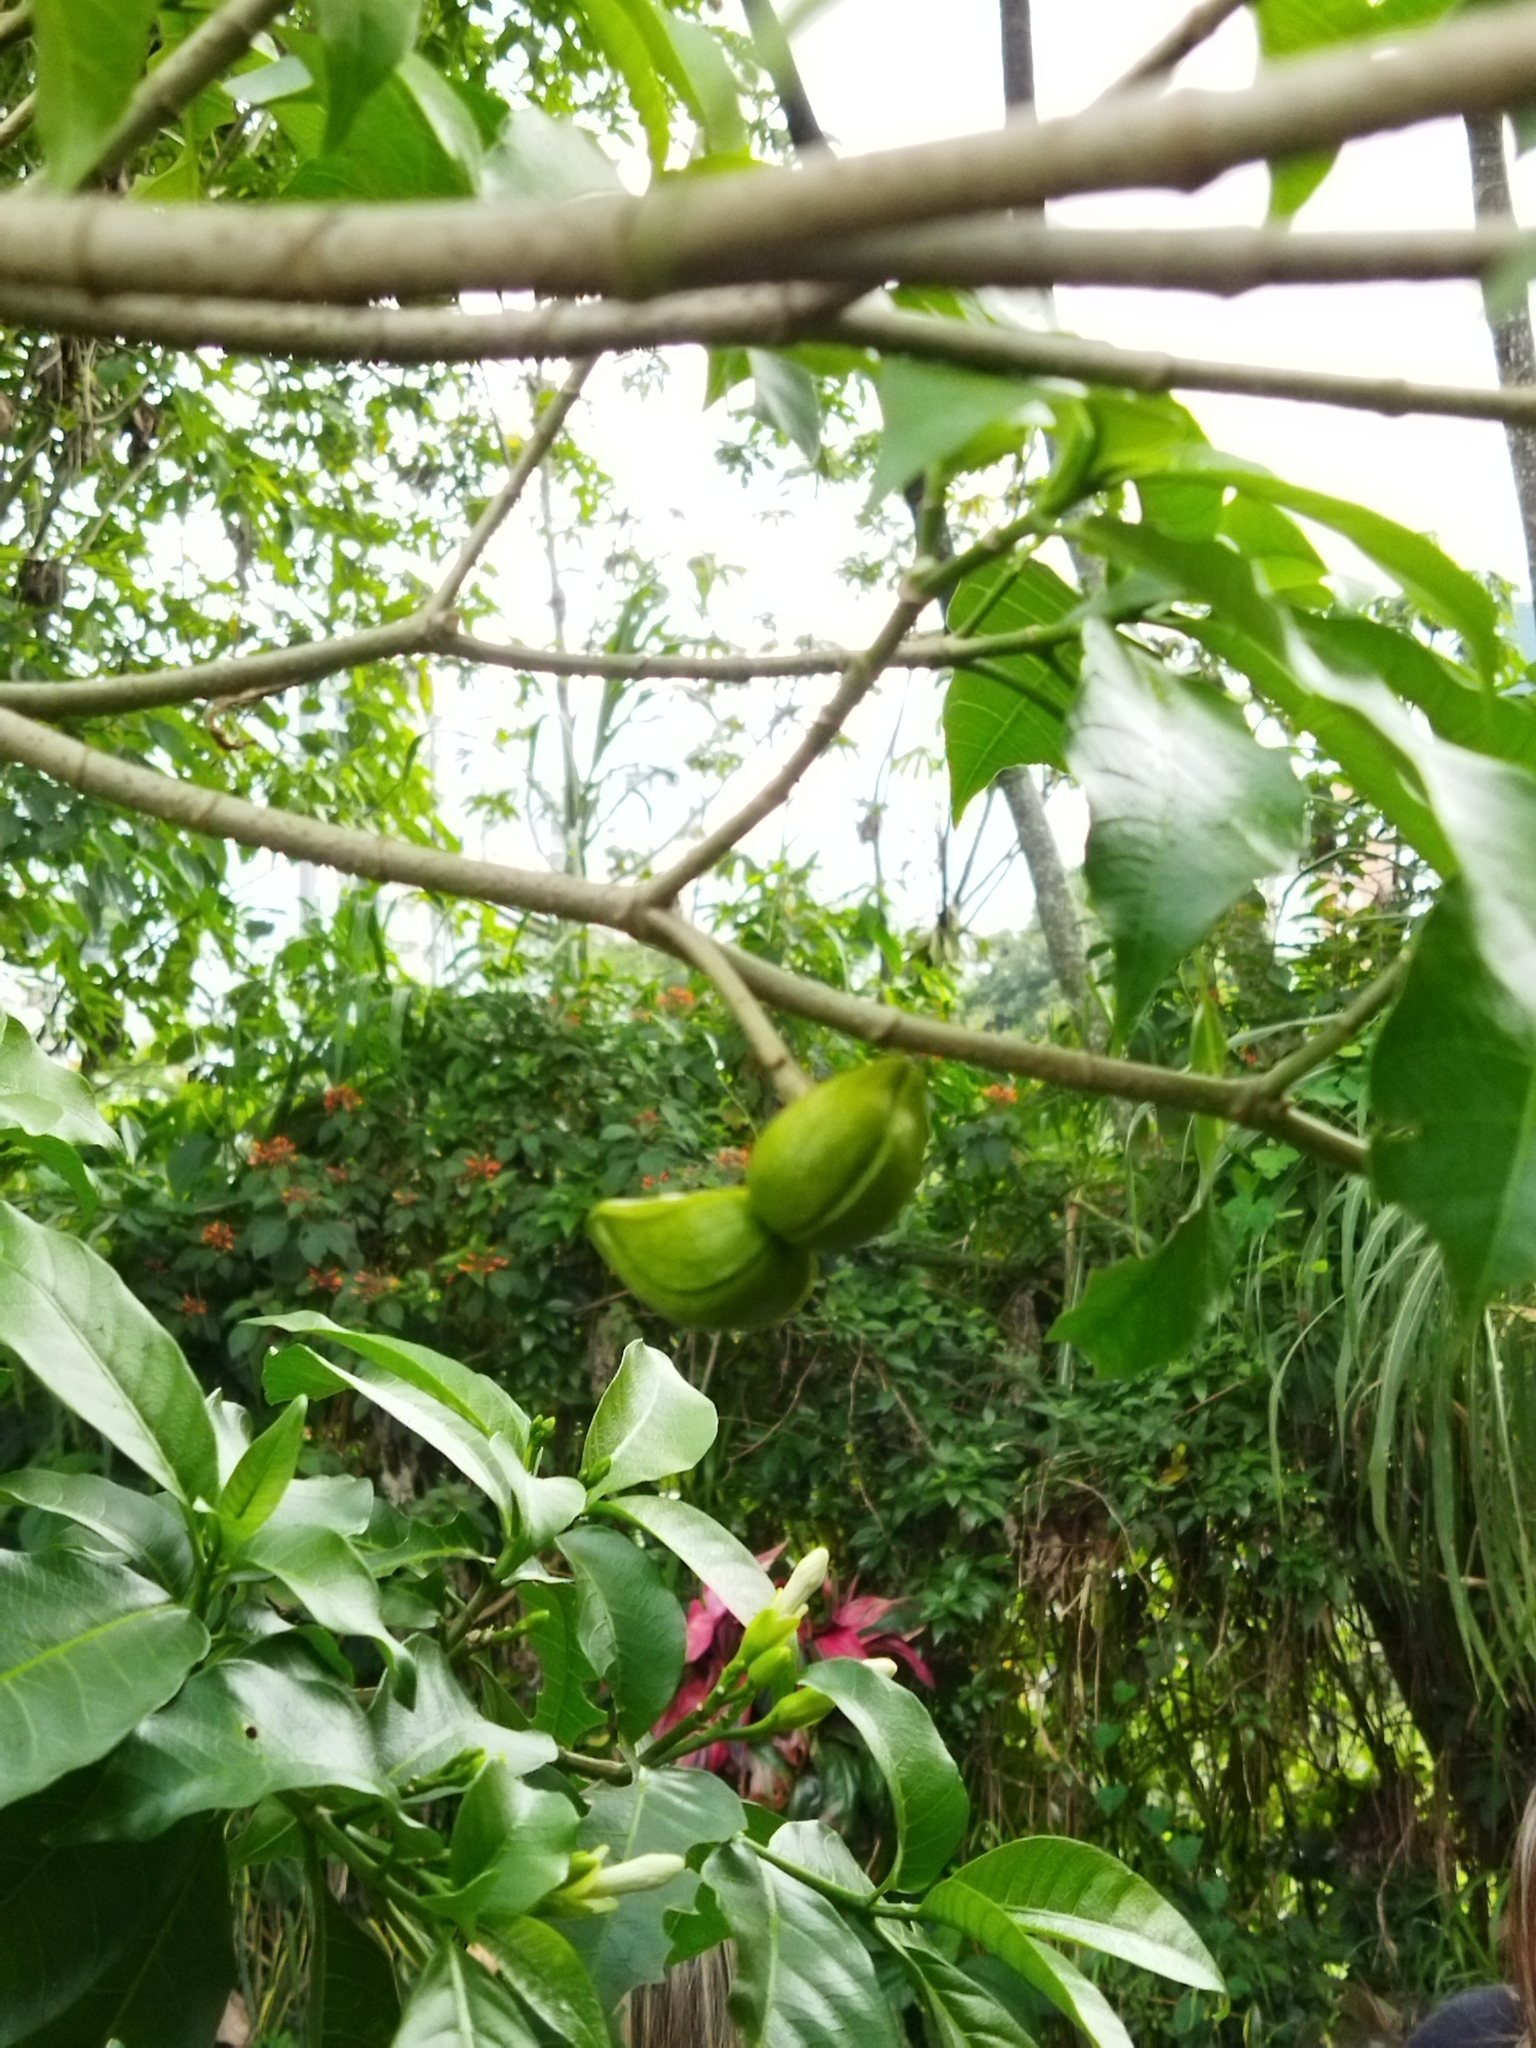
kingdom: Plantae
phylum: Tracheophyta
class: Magnoliopsida
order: Gentianales
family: Apocynaceae
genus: Tabernaemontana
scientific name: Tabernaemontana divaricata
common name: Pinwheelflower
